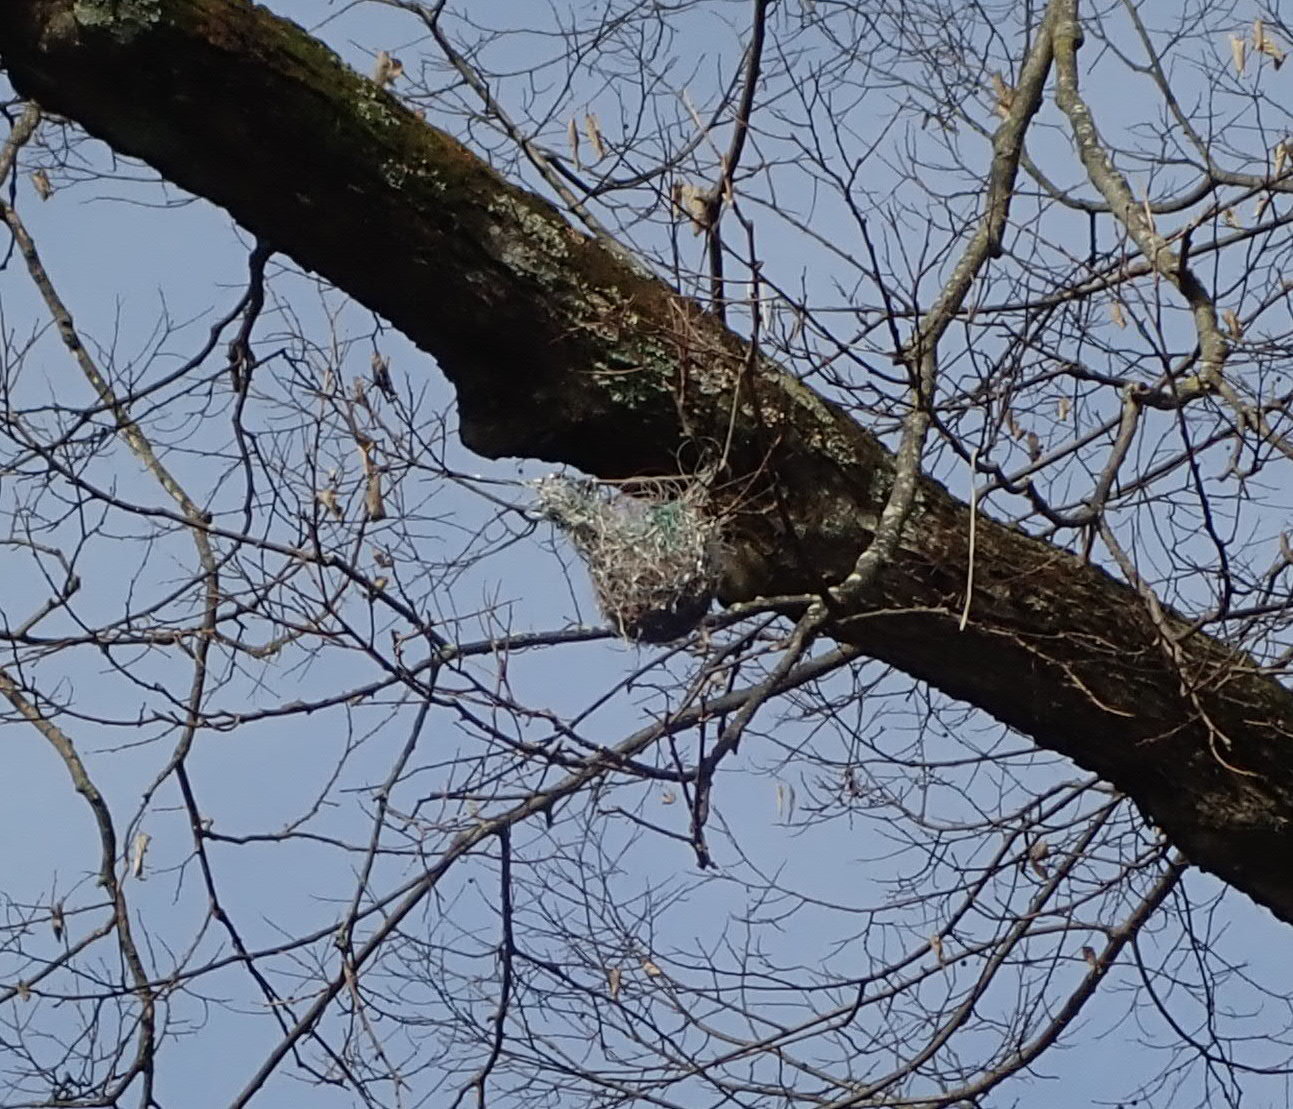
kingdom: Animalia
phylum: Chordata
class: Aves
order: Passeriformes
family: Icteridae
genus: Icterus
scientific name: Icterus galbula
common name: Baltimore oriole
